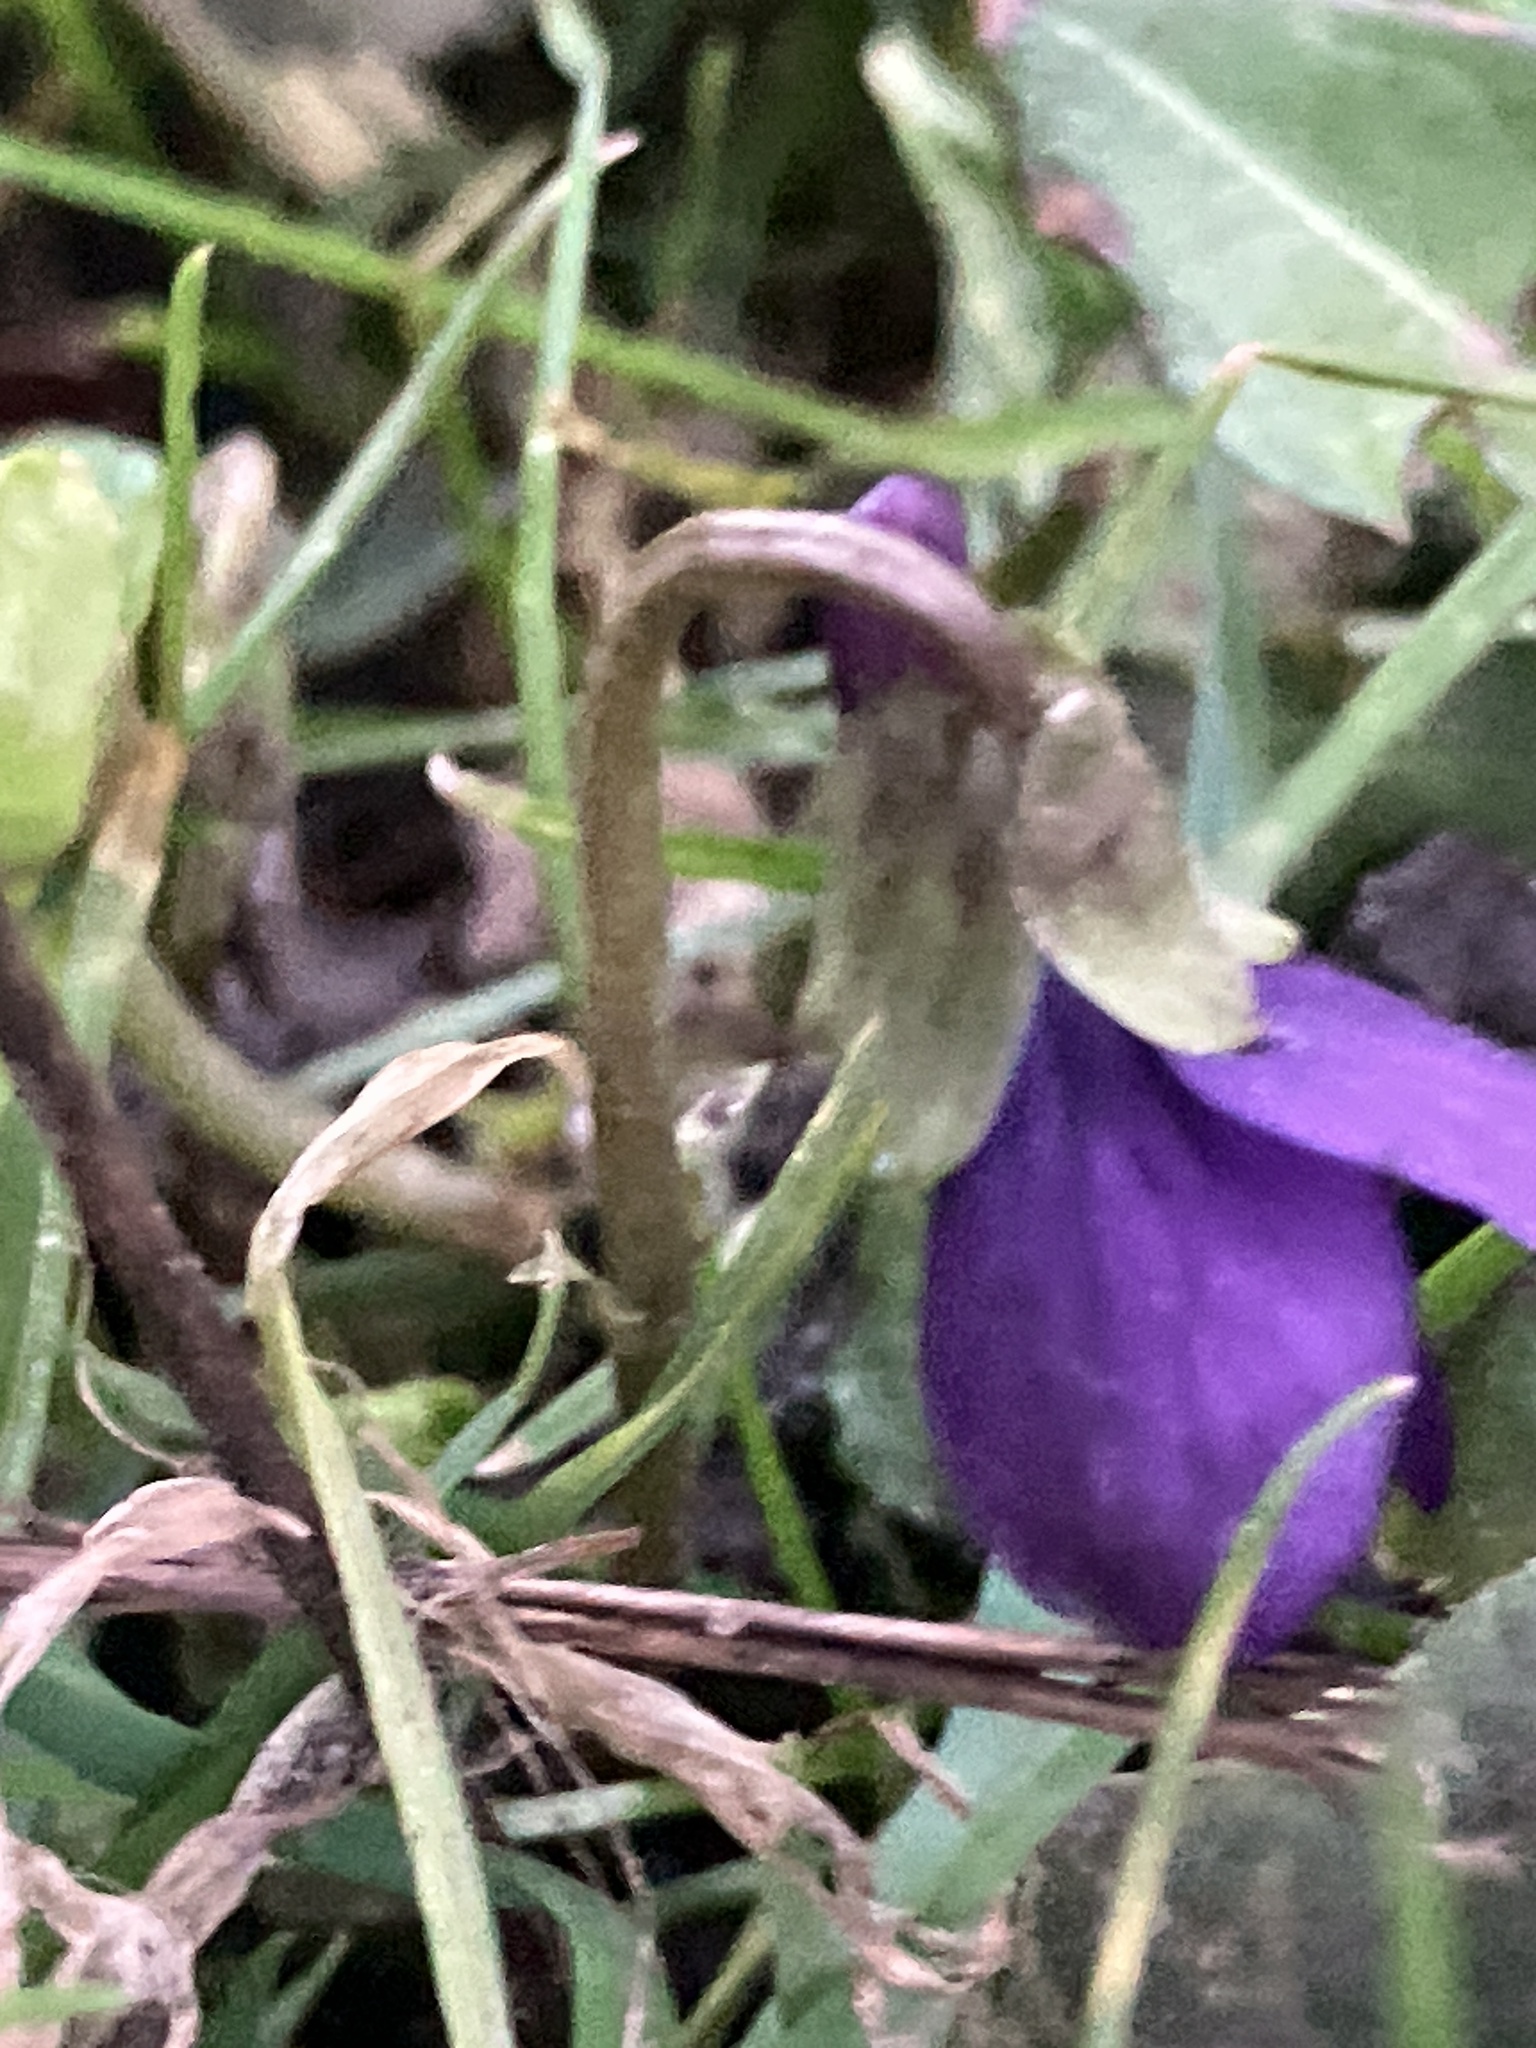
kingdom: Plantae
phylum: Tracheophyta
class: Magnoliopsida
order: Malpighiales
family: Violaceae
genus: Viola
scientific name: Viola odorata
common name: Sweet violet
